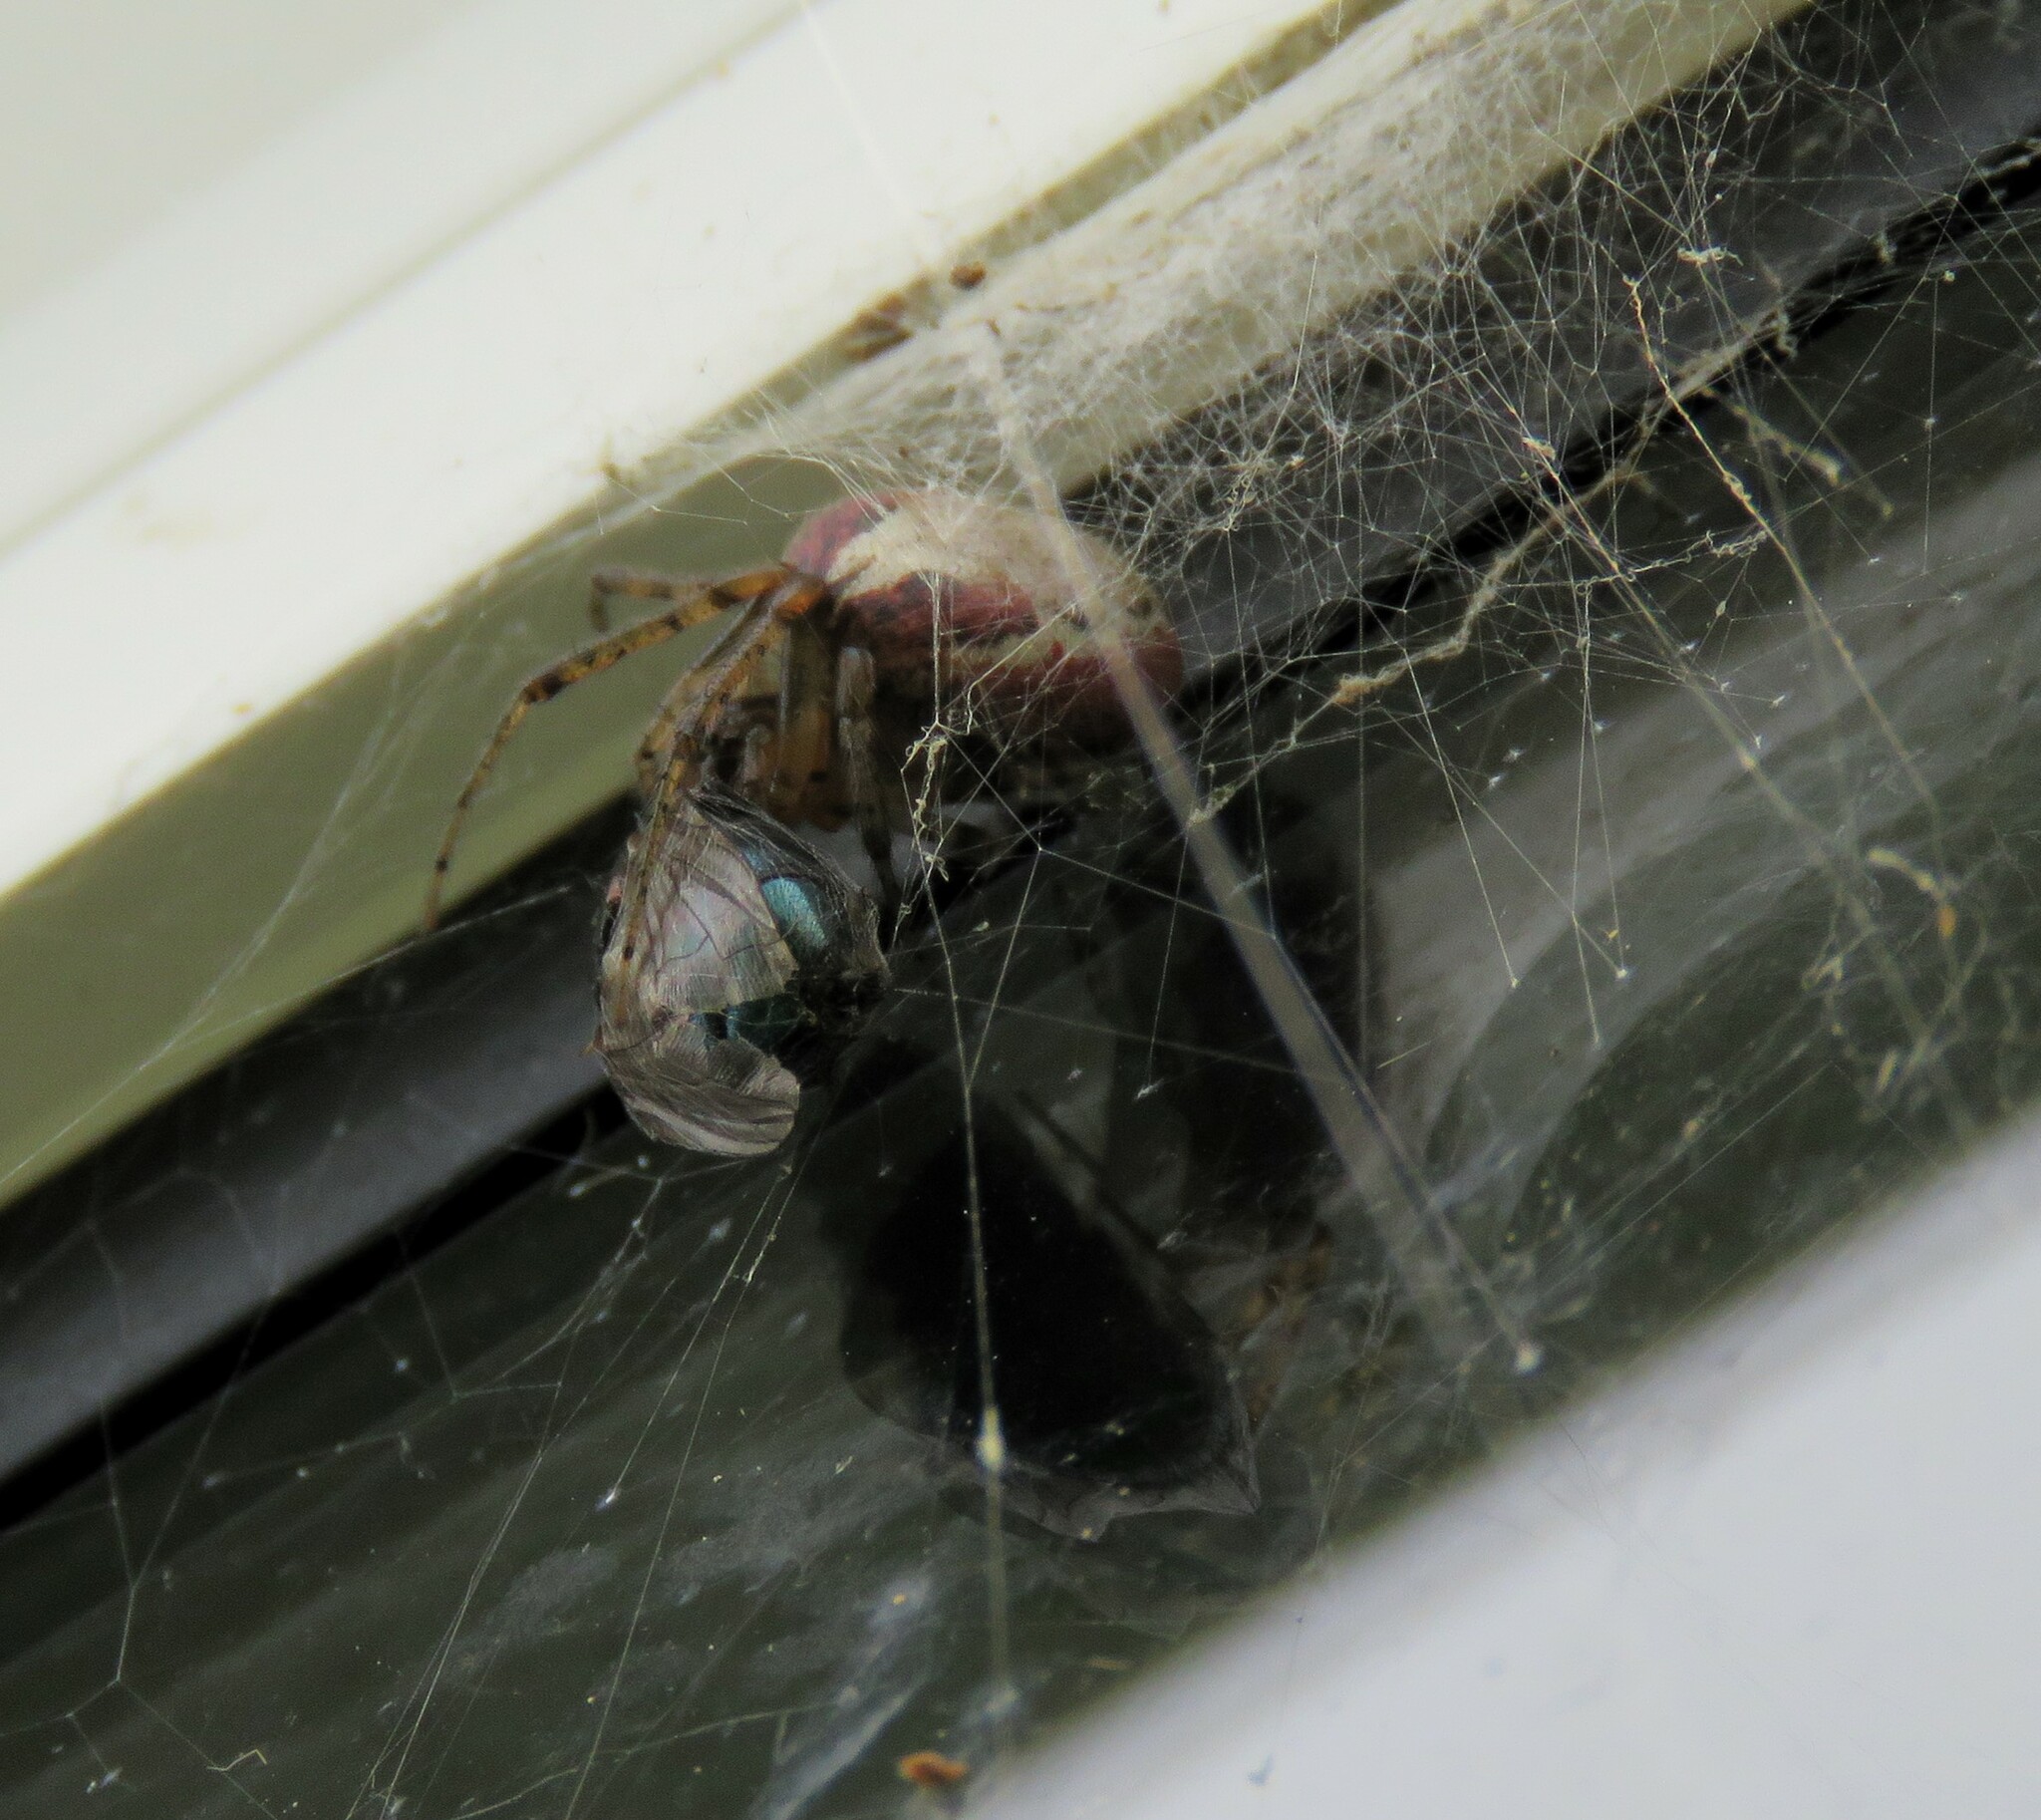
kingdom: Animalia
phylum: Arthropoda
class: Arachnida
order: Araneae
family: Araneidae
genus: Zygiella
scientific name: Zygiella atrica
